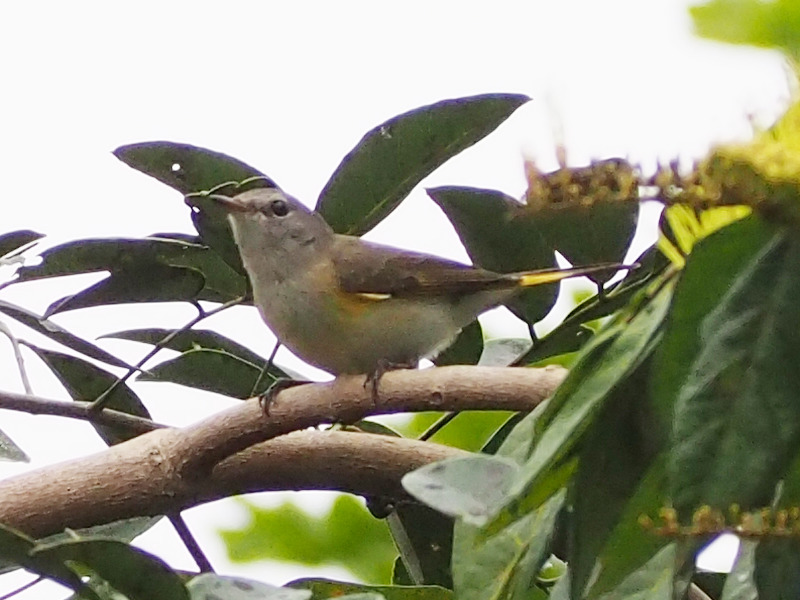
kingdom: Animalia
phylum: Chordata
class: Aves
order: Passeriformes
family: Parulidae
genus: Setophaga
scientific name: Setophaga ruticilla
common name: American redstart
